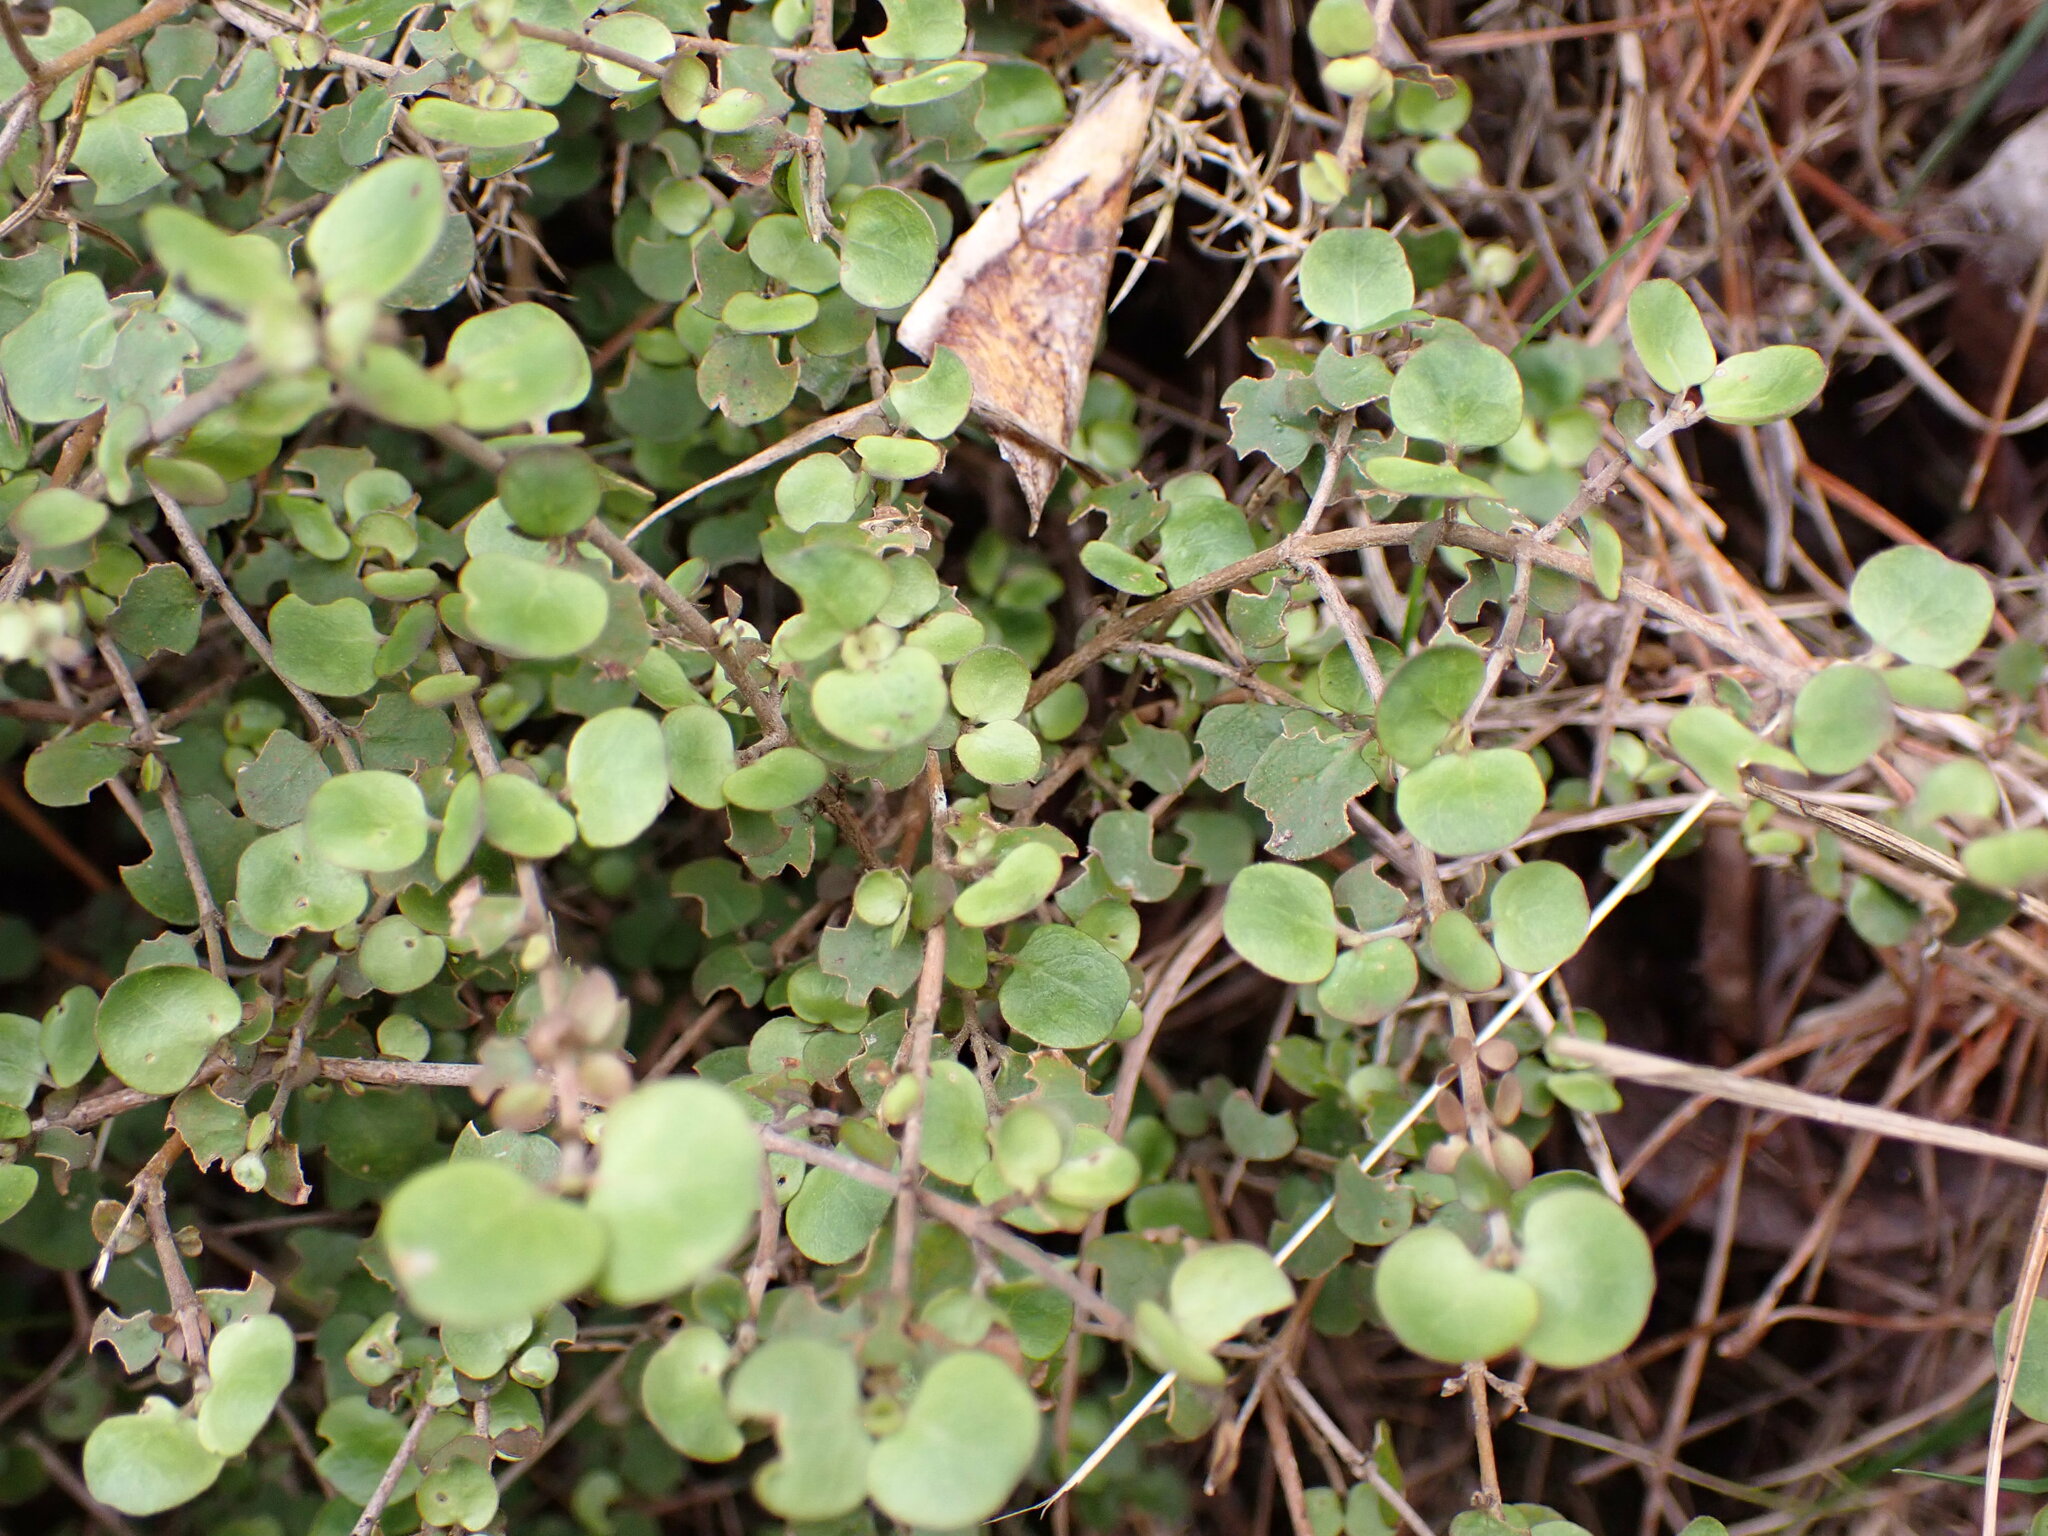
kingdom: Plantae
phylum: Tracheophyta
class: Magnoliopsida
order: Gentianales
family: Rubiaceae
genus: Coprosma
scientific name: Coprosma rhamnoides
